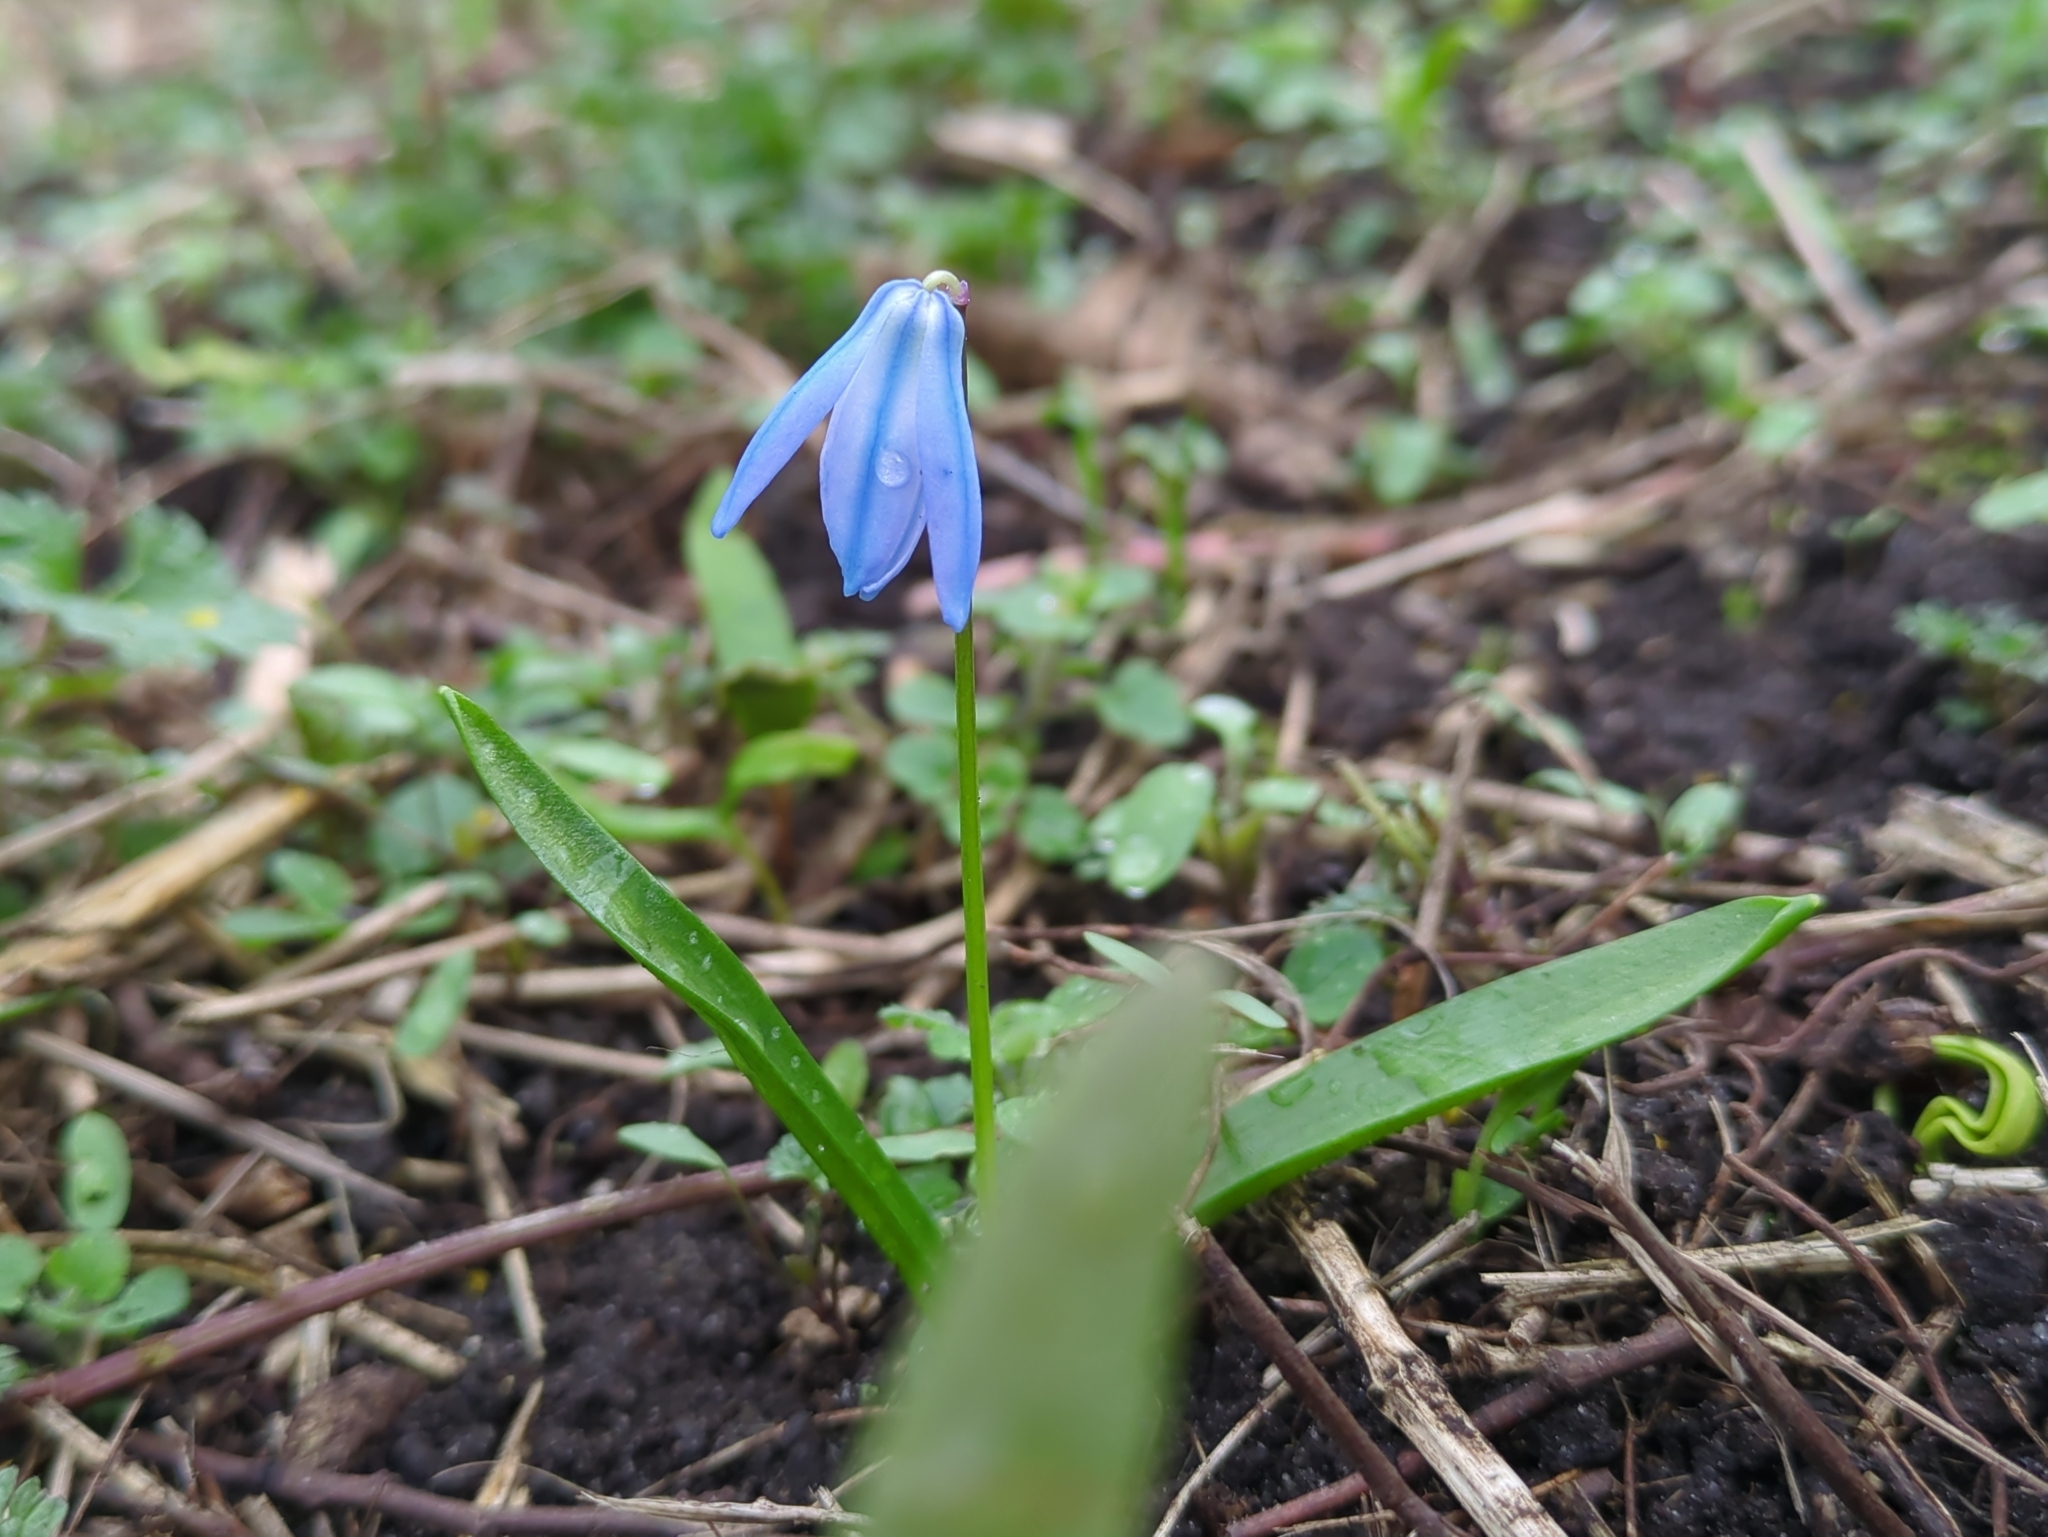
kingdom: Plantae
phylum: Tracheophyta
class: Liliopsida
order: Asparagales
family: Asparagaceae
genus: Scilla
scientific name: Scilla siberica
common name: Siberian squill
